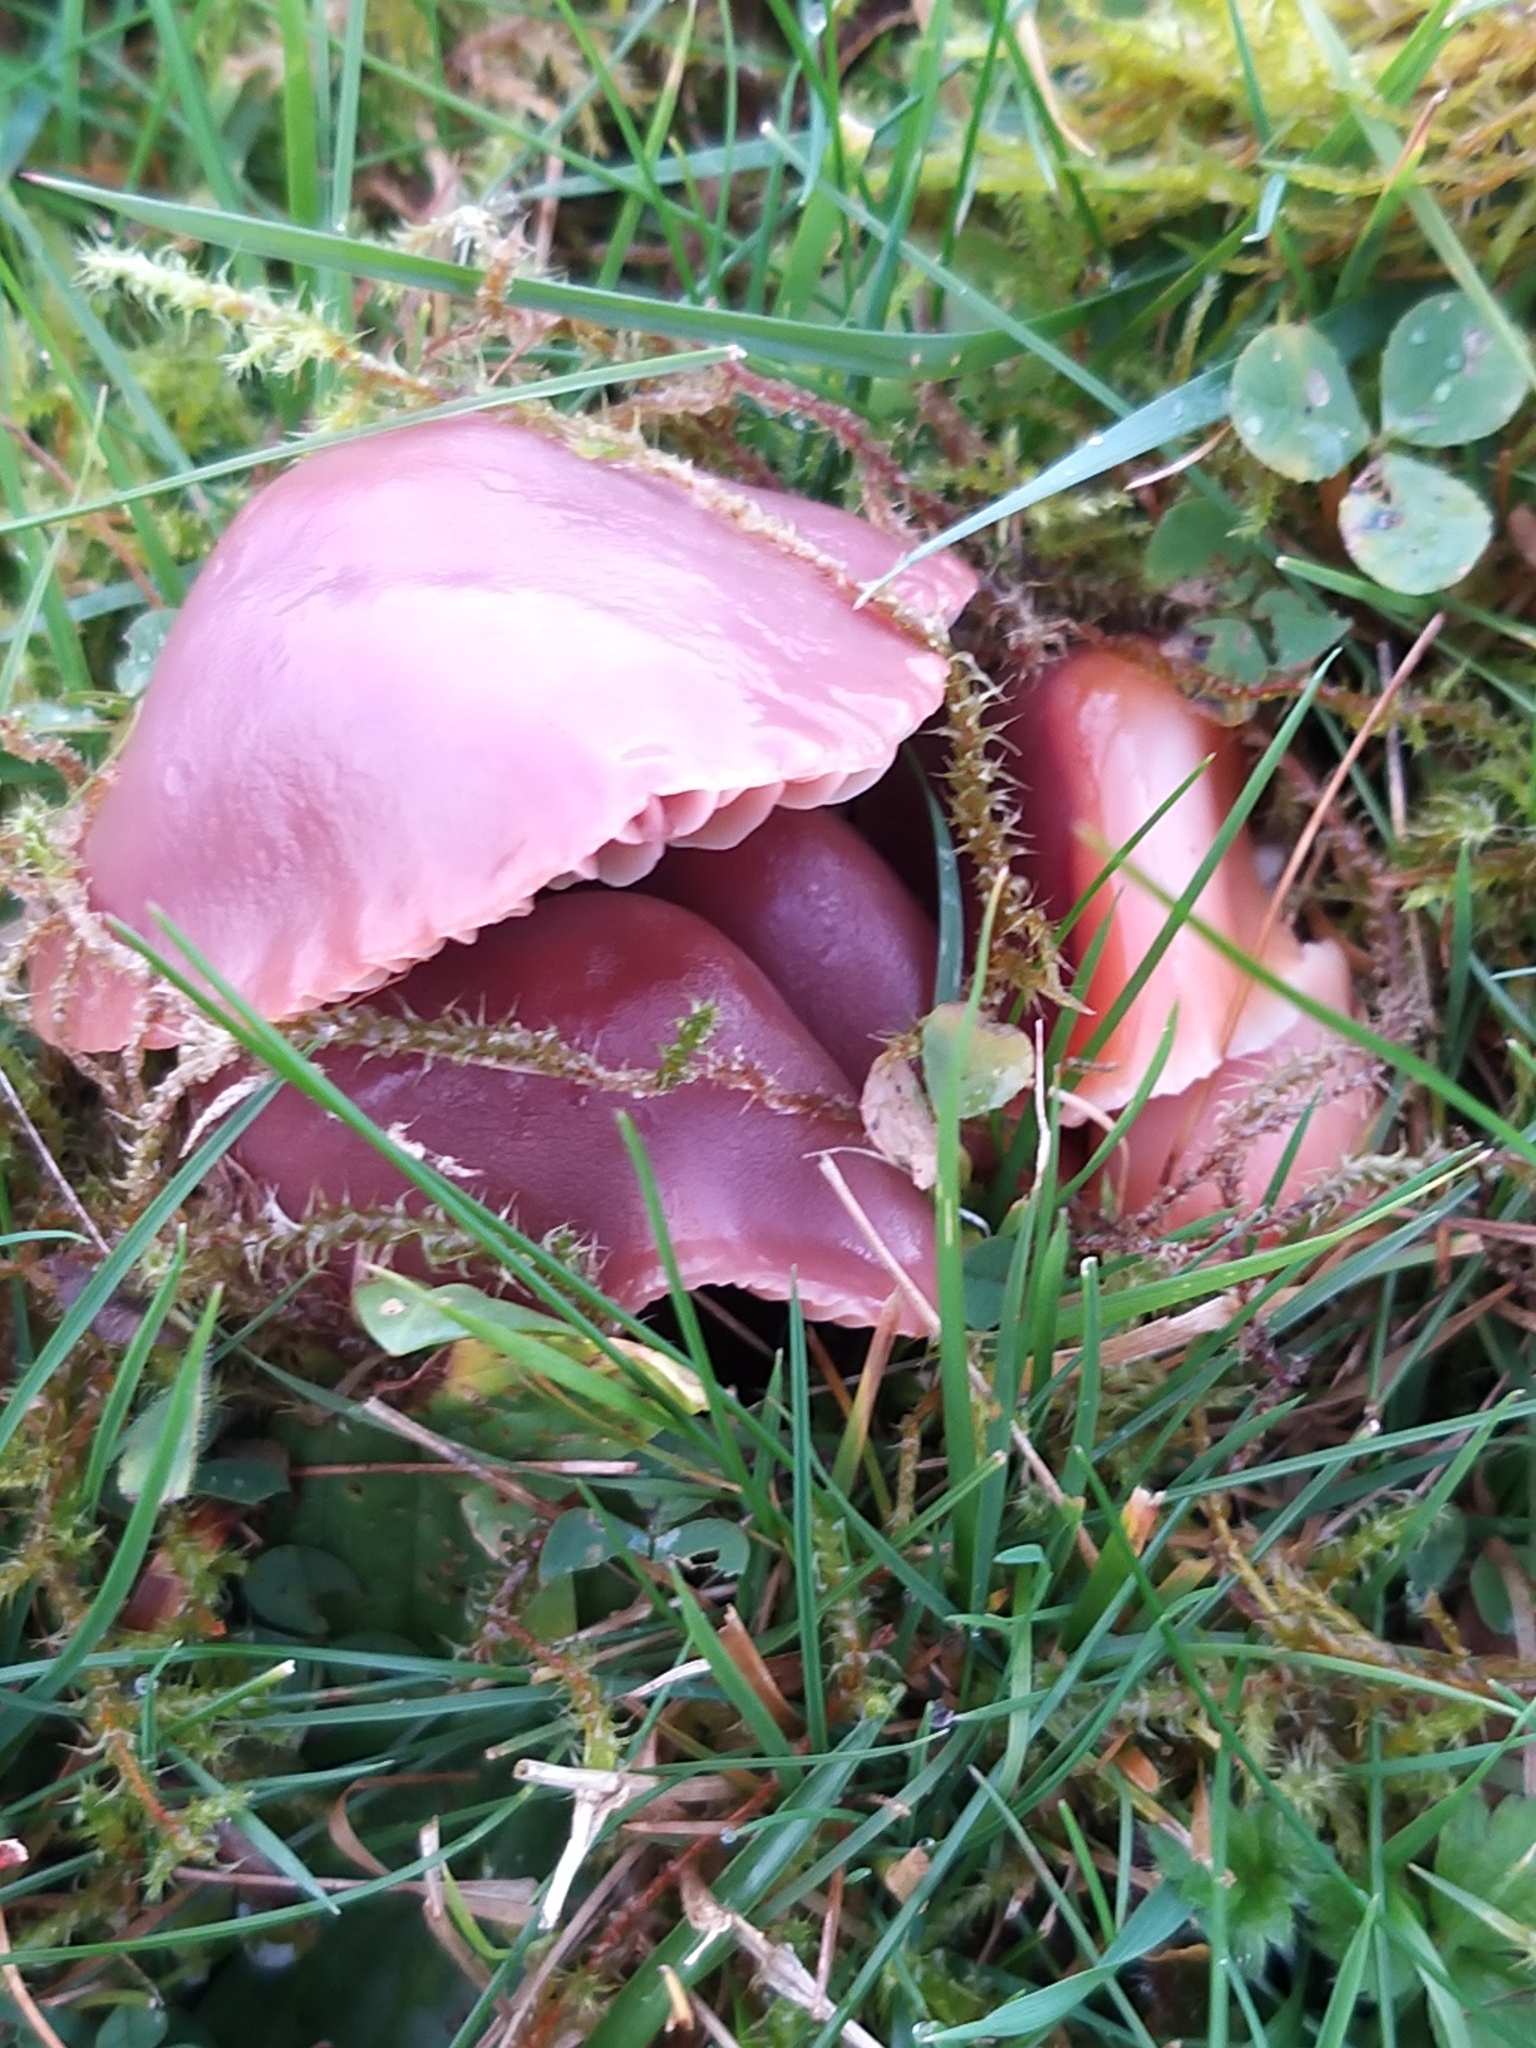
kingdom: Fungi
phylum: Basidiomycota
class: Agaricomycetes
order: Agaricales
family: Hygrophoraceae
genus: Gliophorus
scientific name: Gliophorus reginae
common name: Jubilee waxcap
